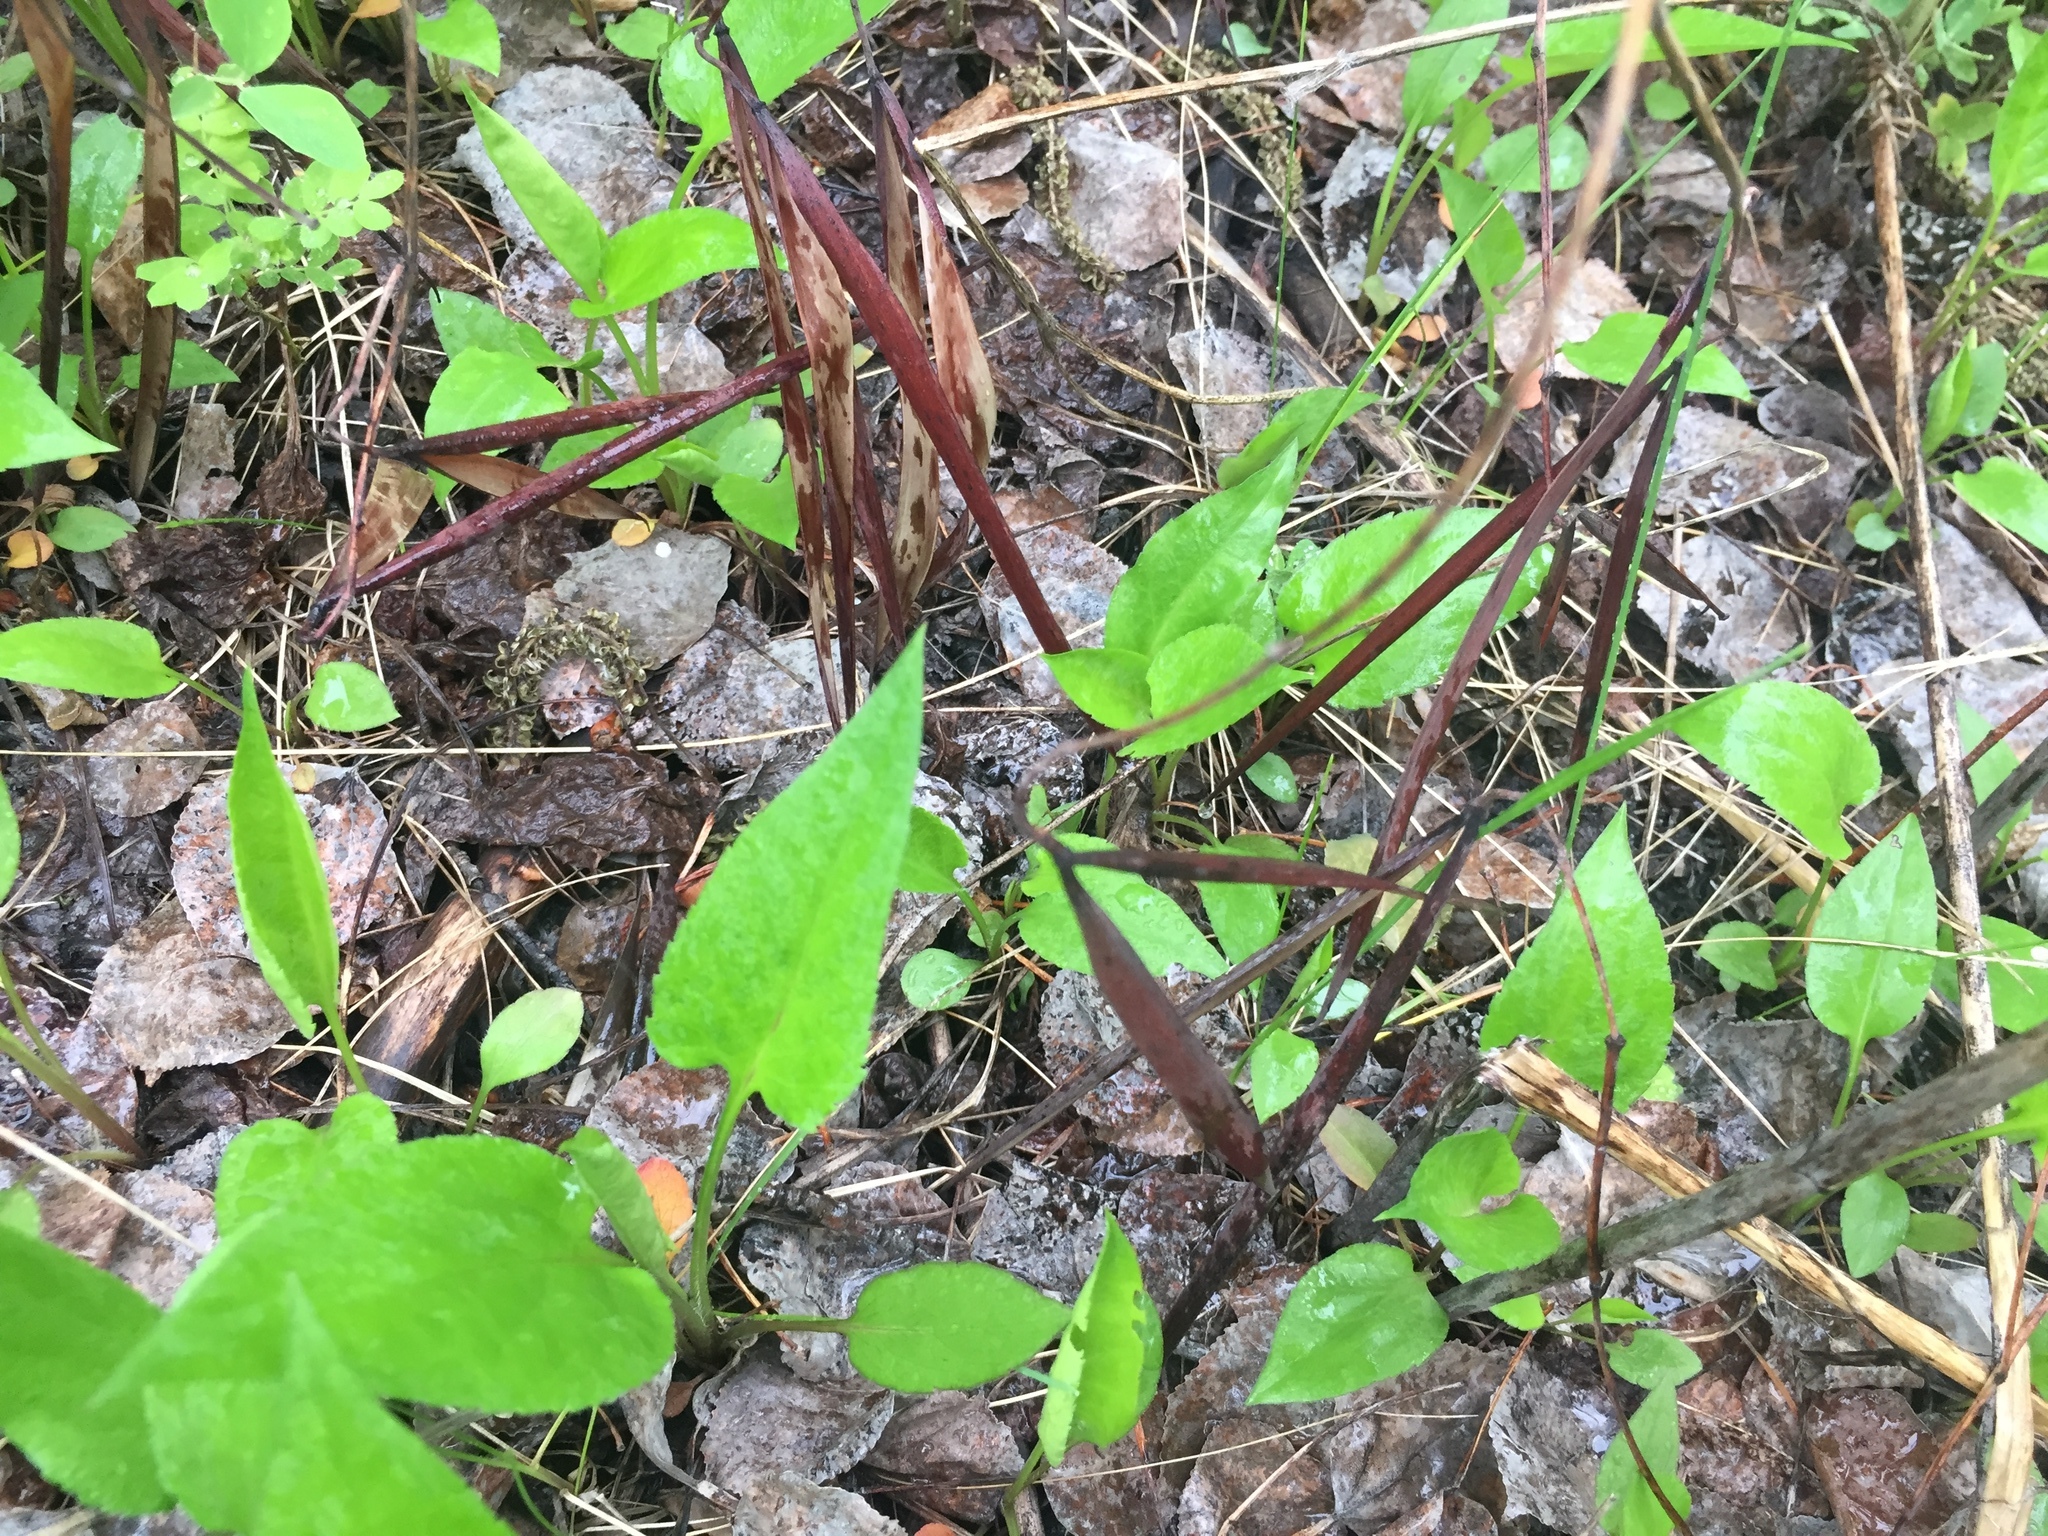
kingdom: Plantae
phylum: Tracheophyta
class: Magnoliopsida
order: Gentianales
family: Apocynaceae
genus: Apocynum
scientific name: Apocynum androsaemifolium
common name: Spreading dogbane
